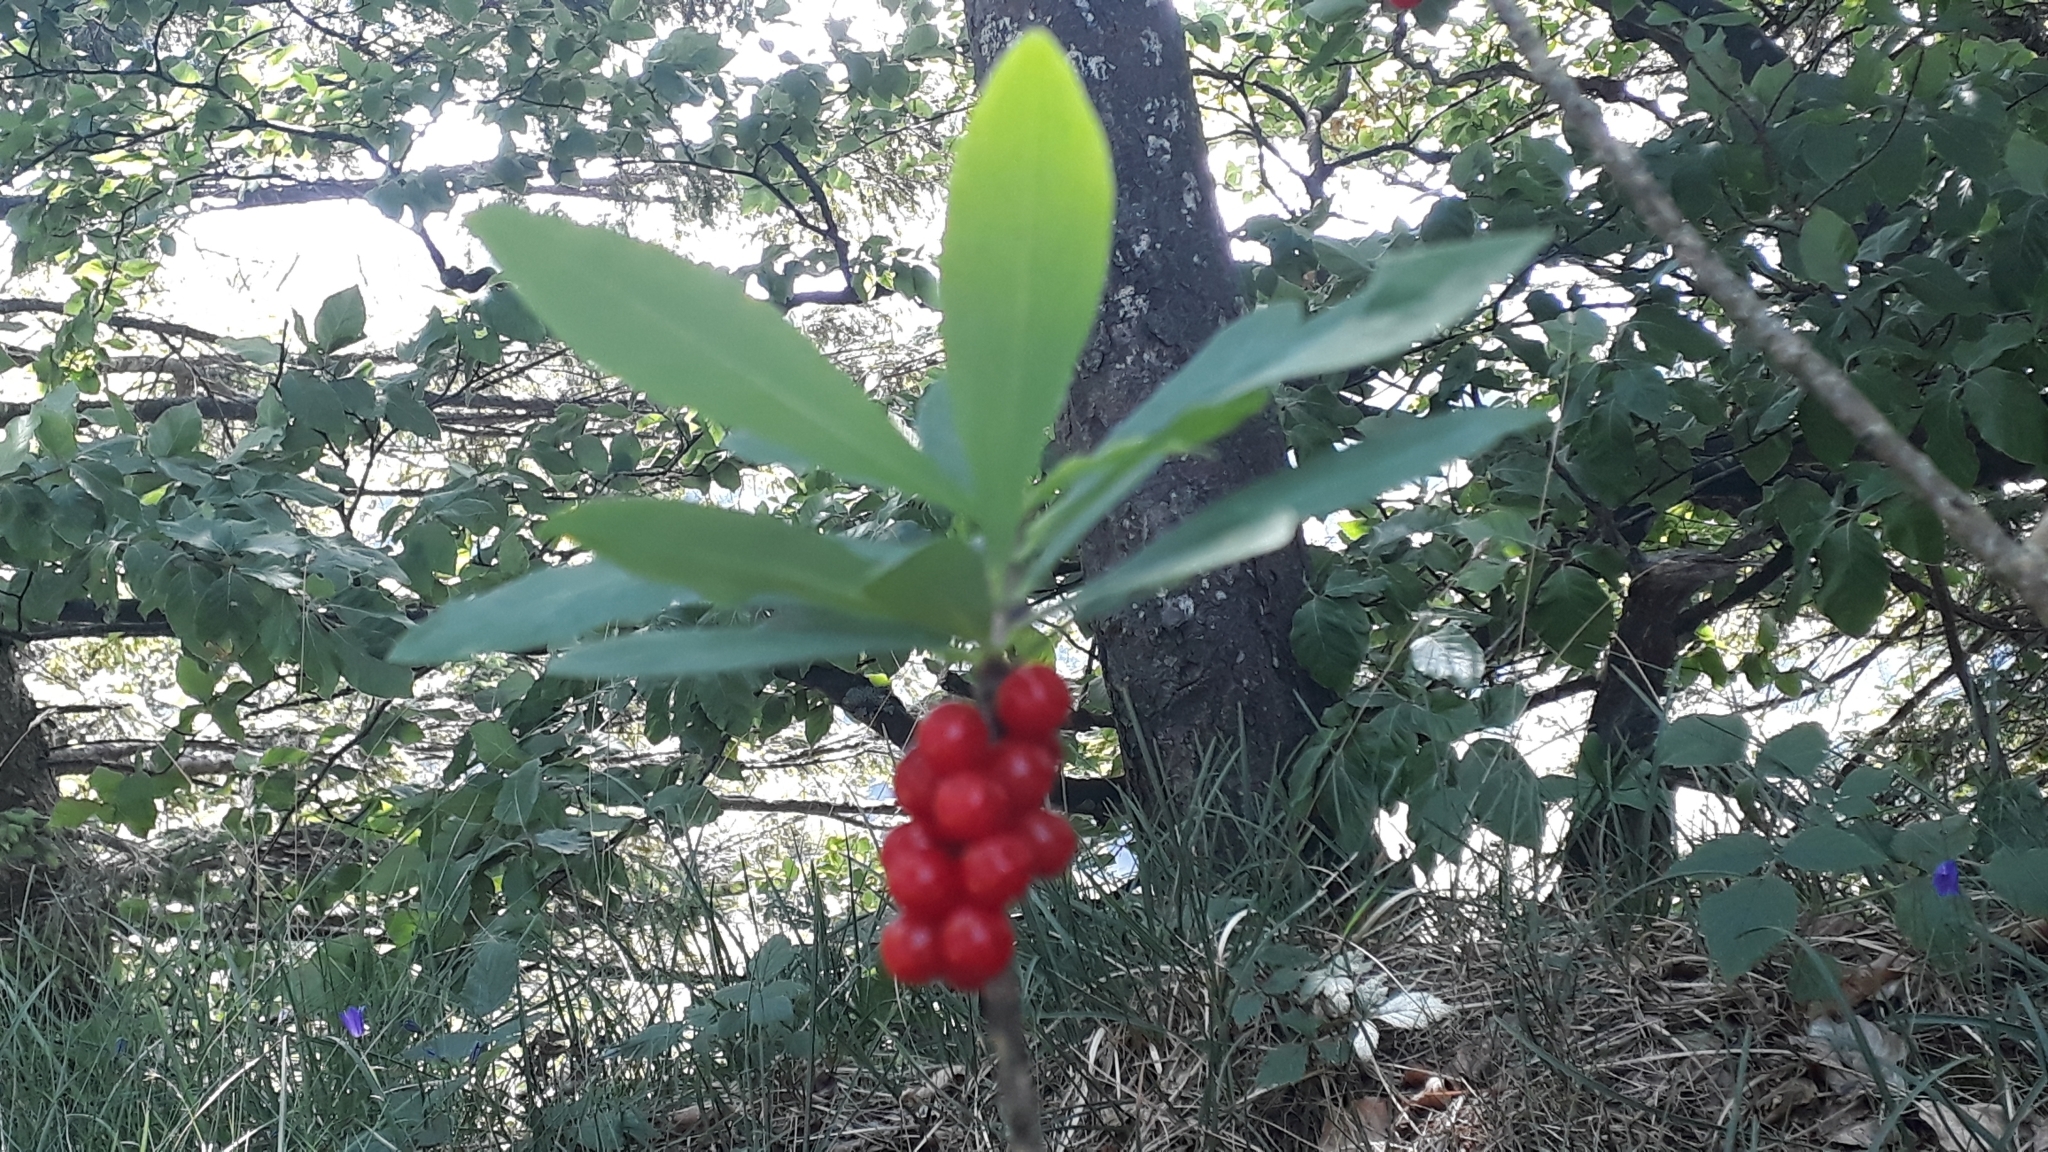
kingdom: Plantae
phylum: Tracheophyta
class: Magnoliopsida
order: Malvales
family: Thymelaeaceae
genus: Daphne
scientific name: Daphne mezereum
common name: Mezereon
